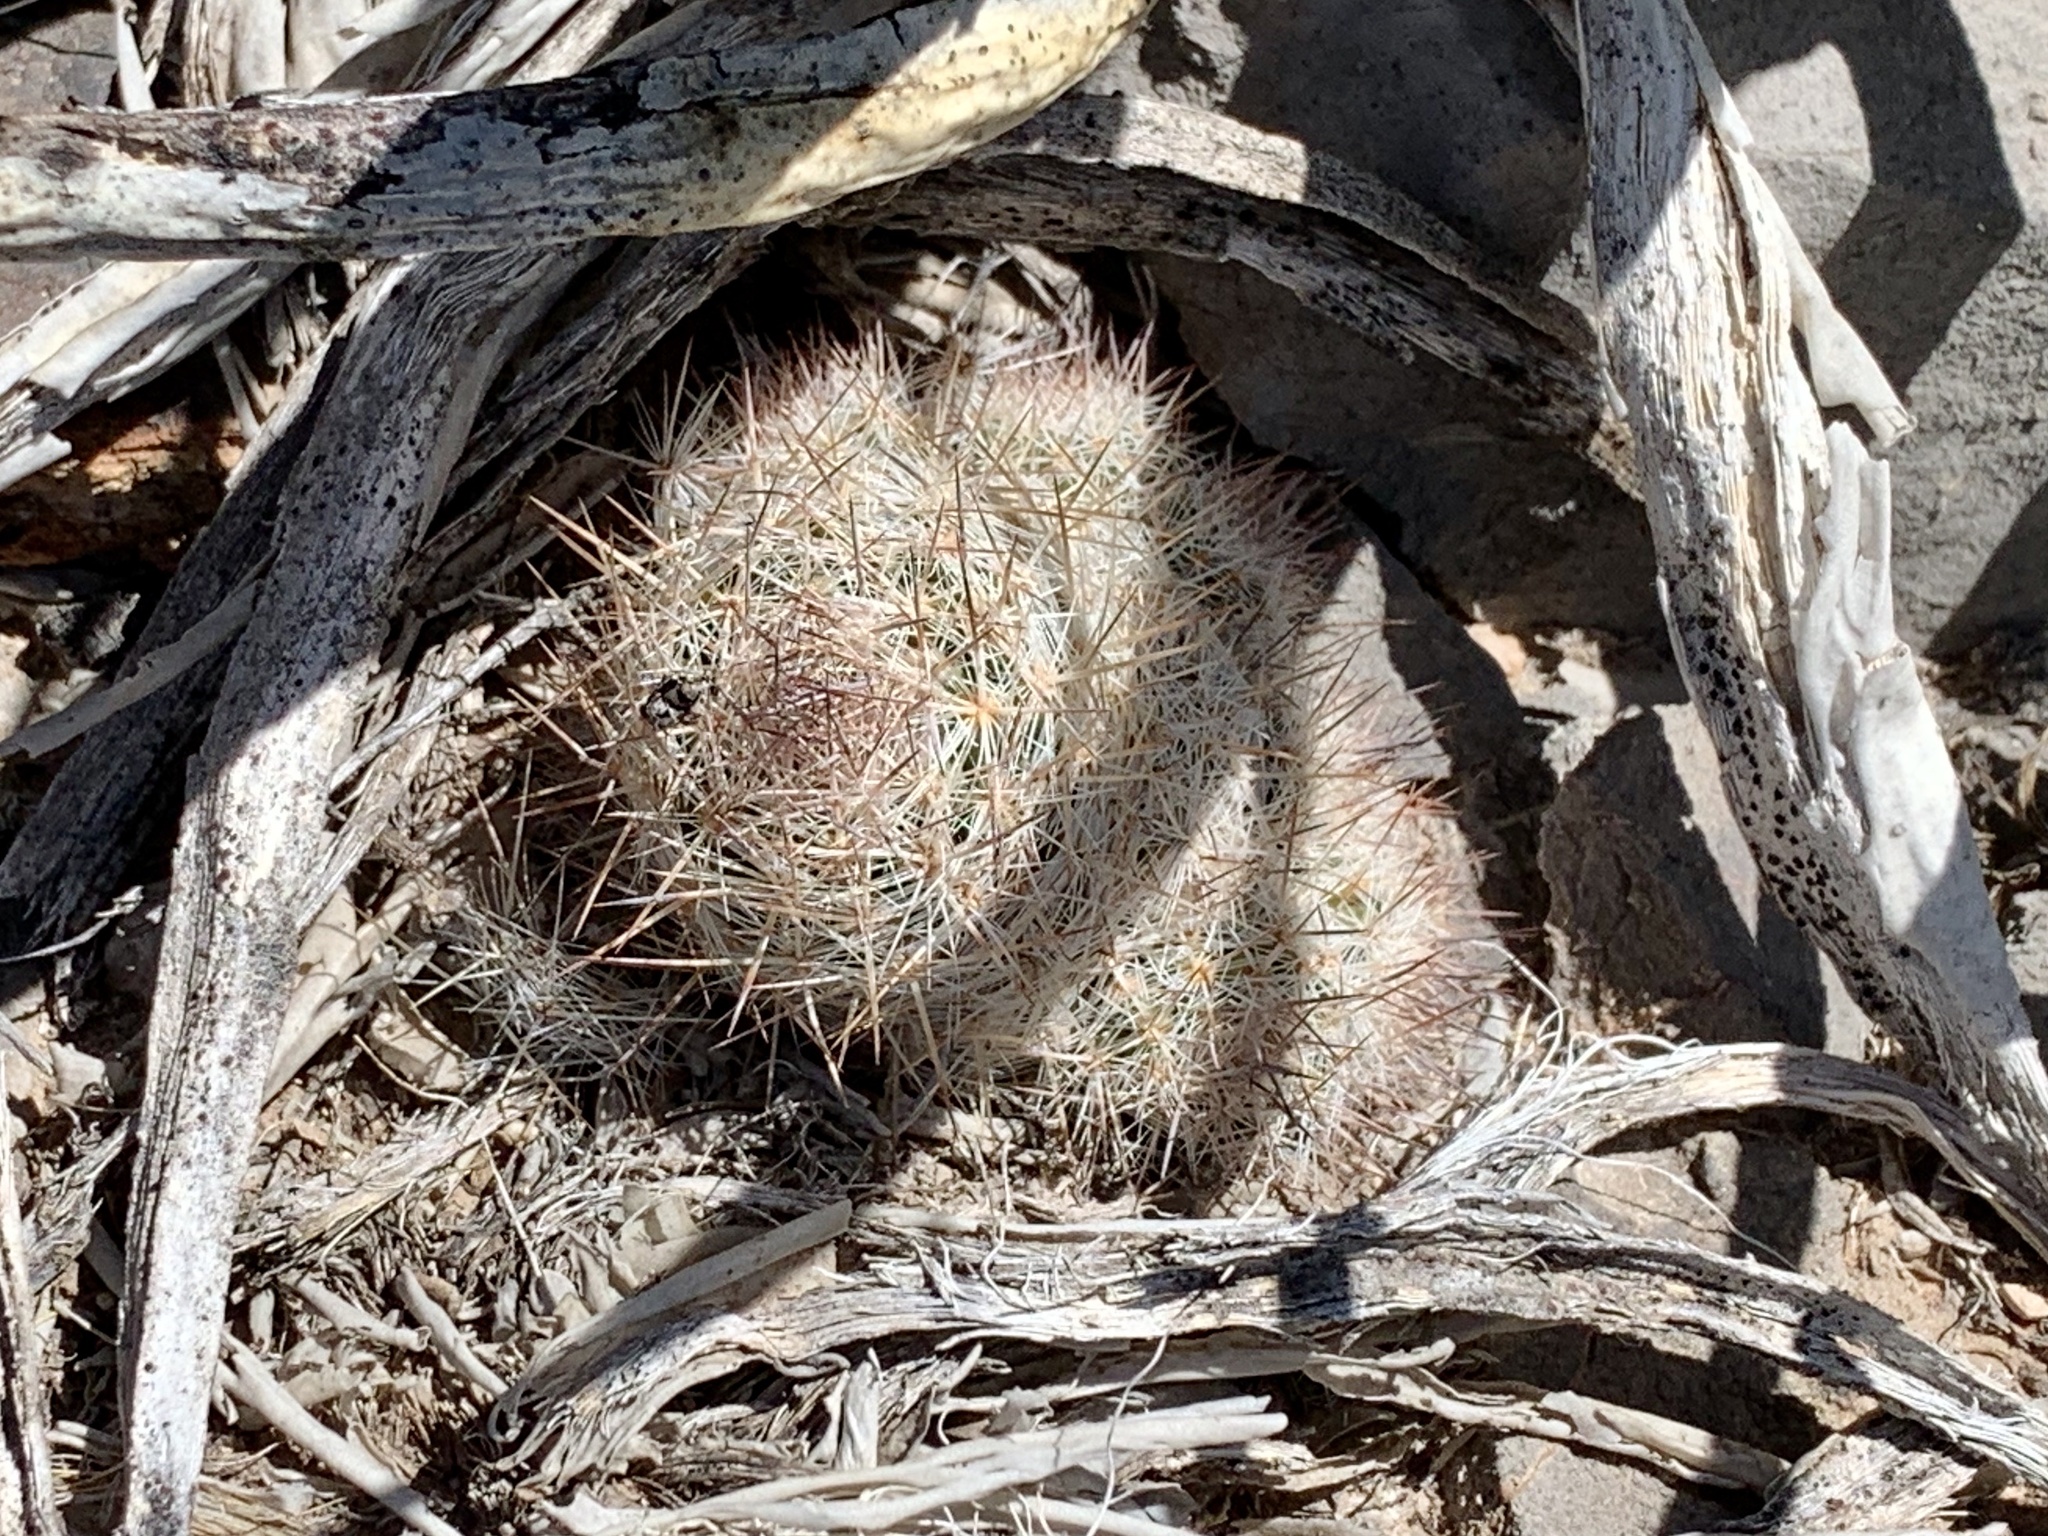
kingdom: Plantae
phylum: Tracheophyta
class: Magnoliopsida
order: Caryophyllales
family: Cactaceae
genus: Pelecyphora
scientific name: Pelecyphora tuberculosa
